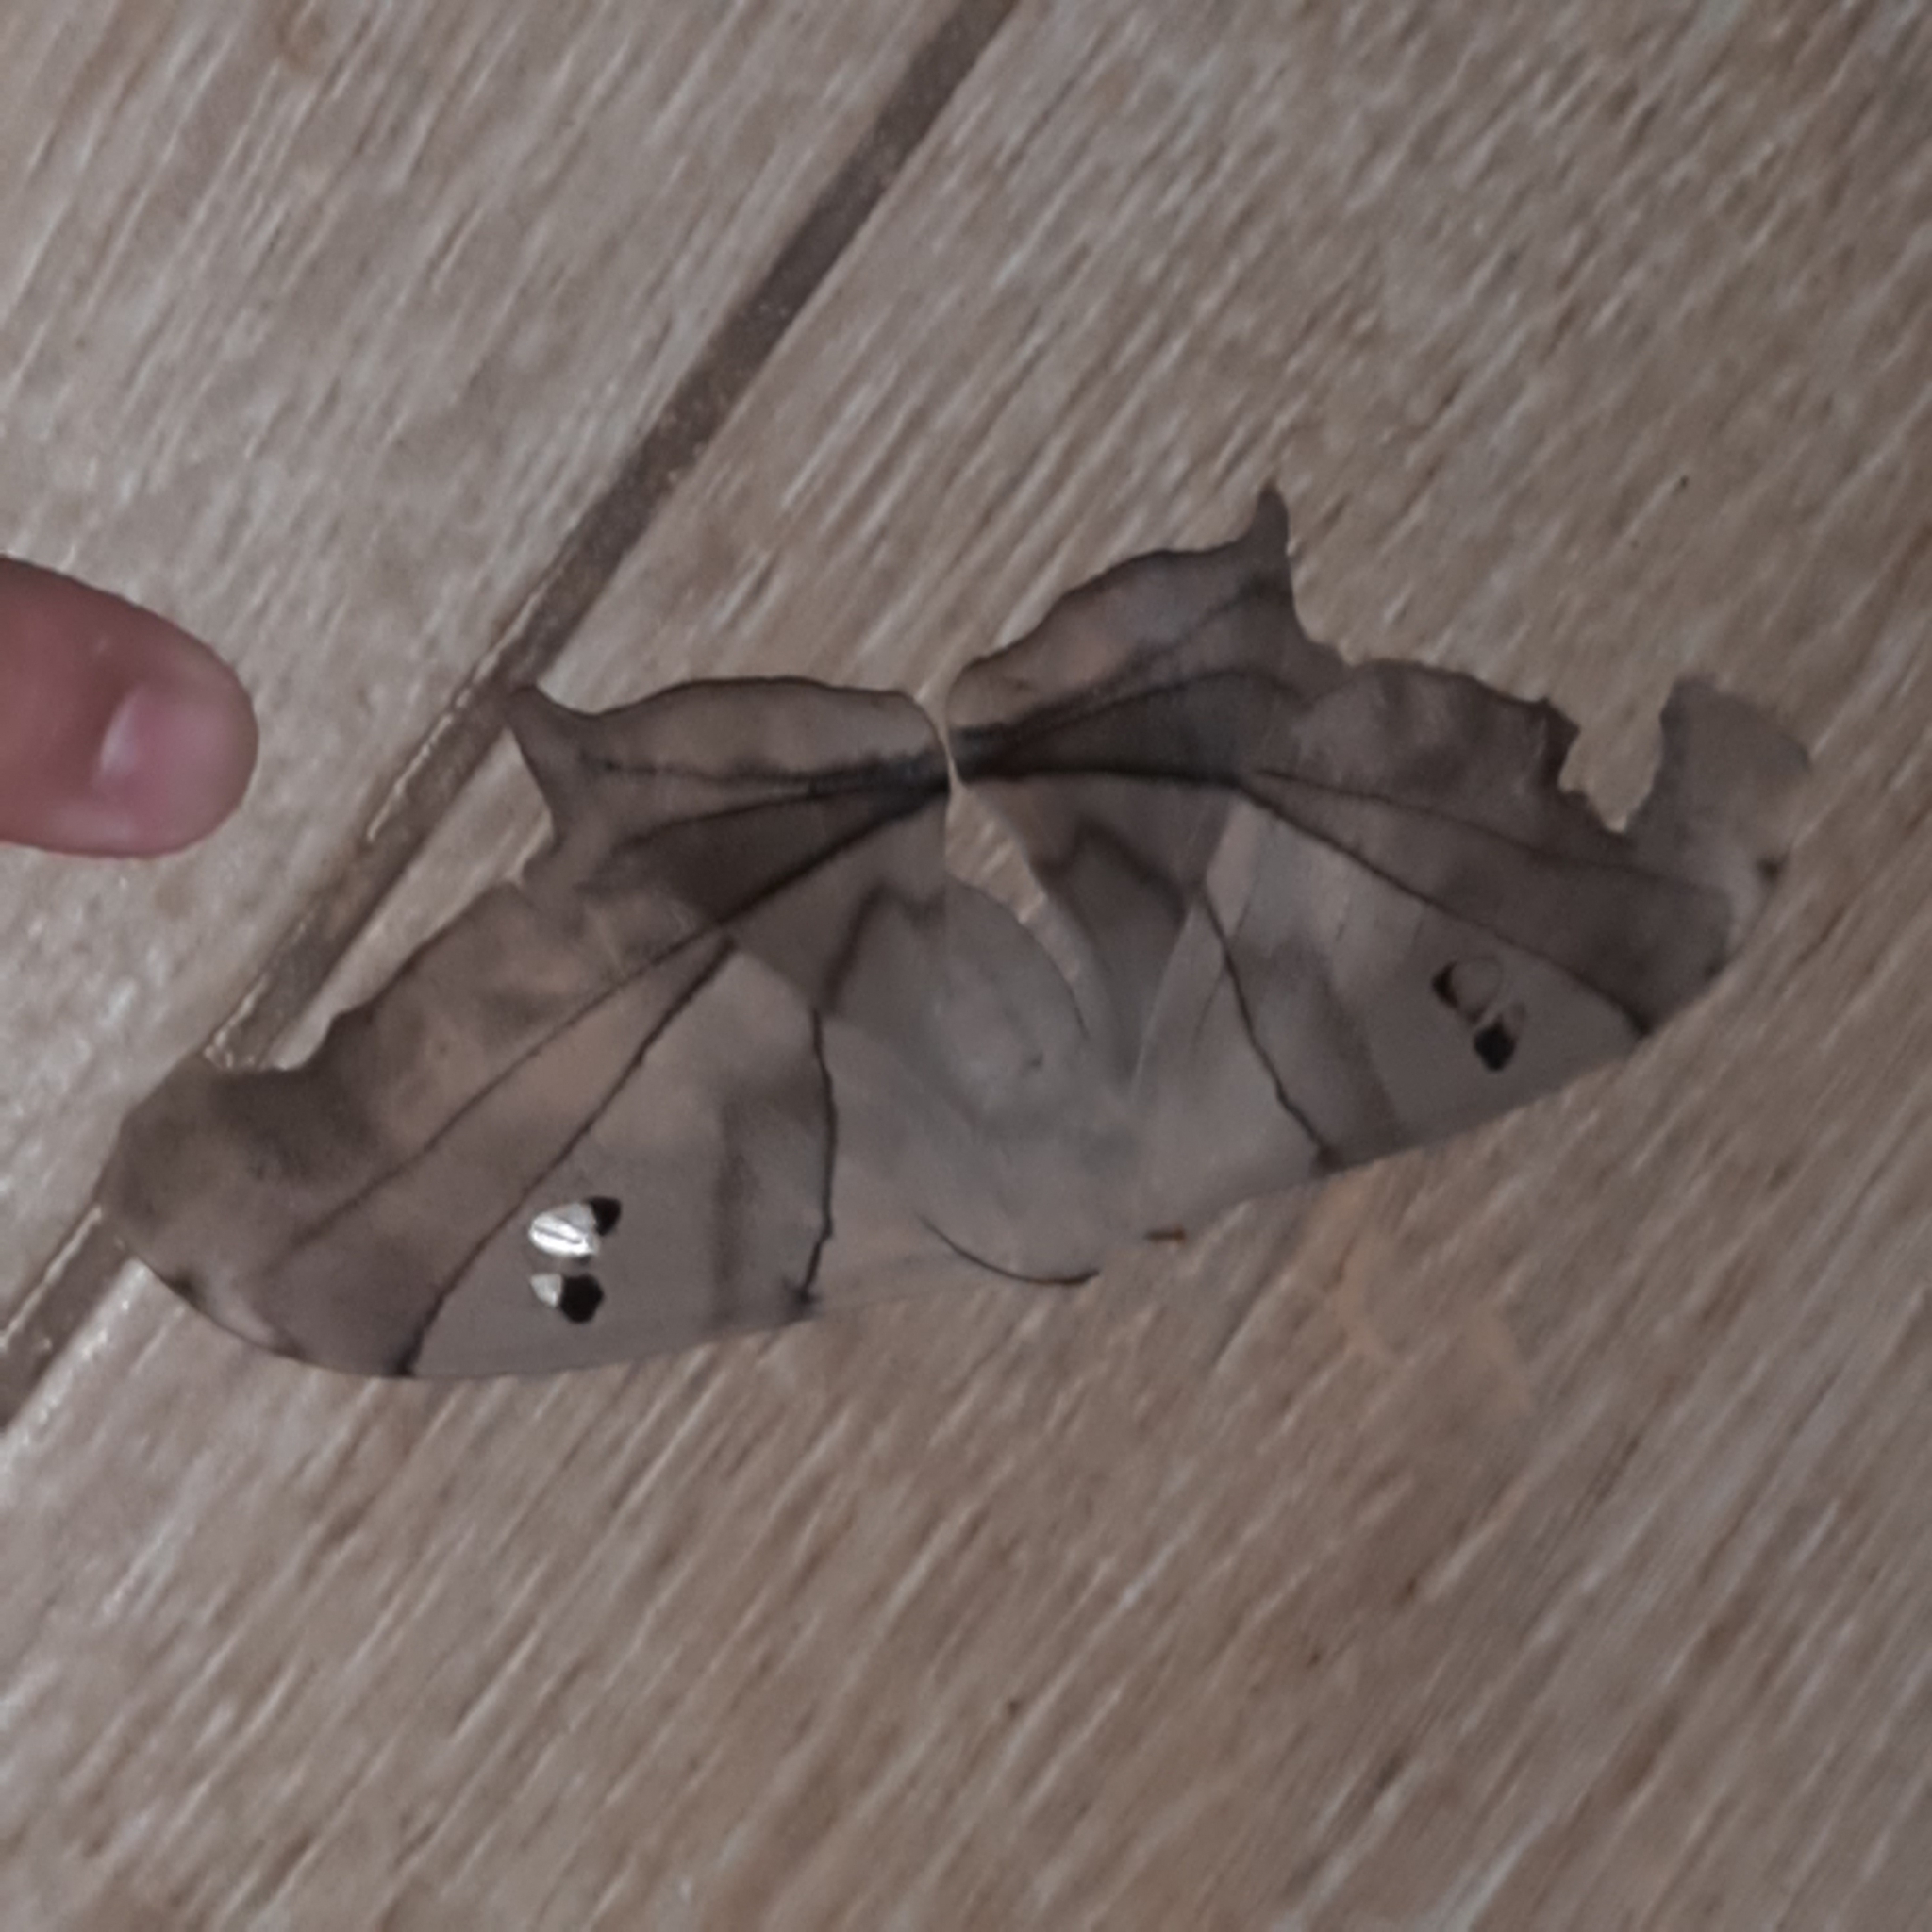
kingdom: Animalia
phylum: Arthropoda
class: Insecta
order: Lepidoptera
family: Saturniidae
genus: Dysdaemonia
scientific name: Dysdaemonia boreas
